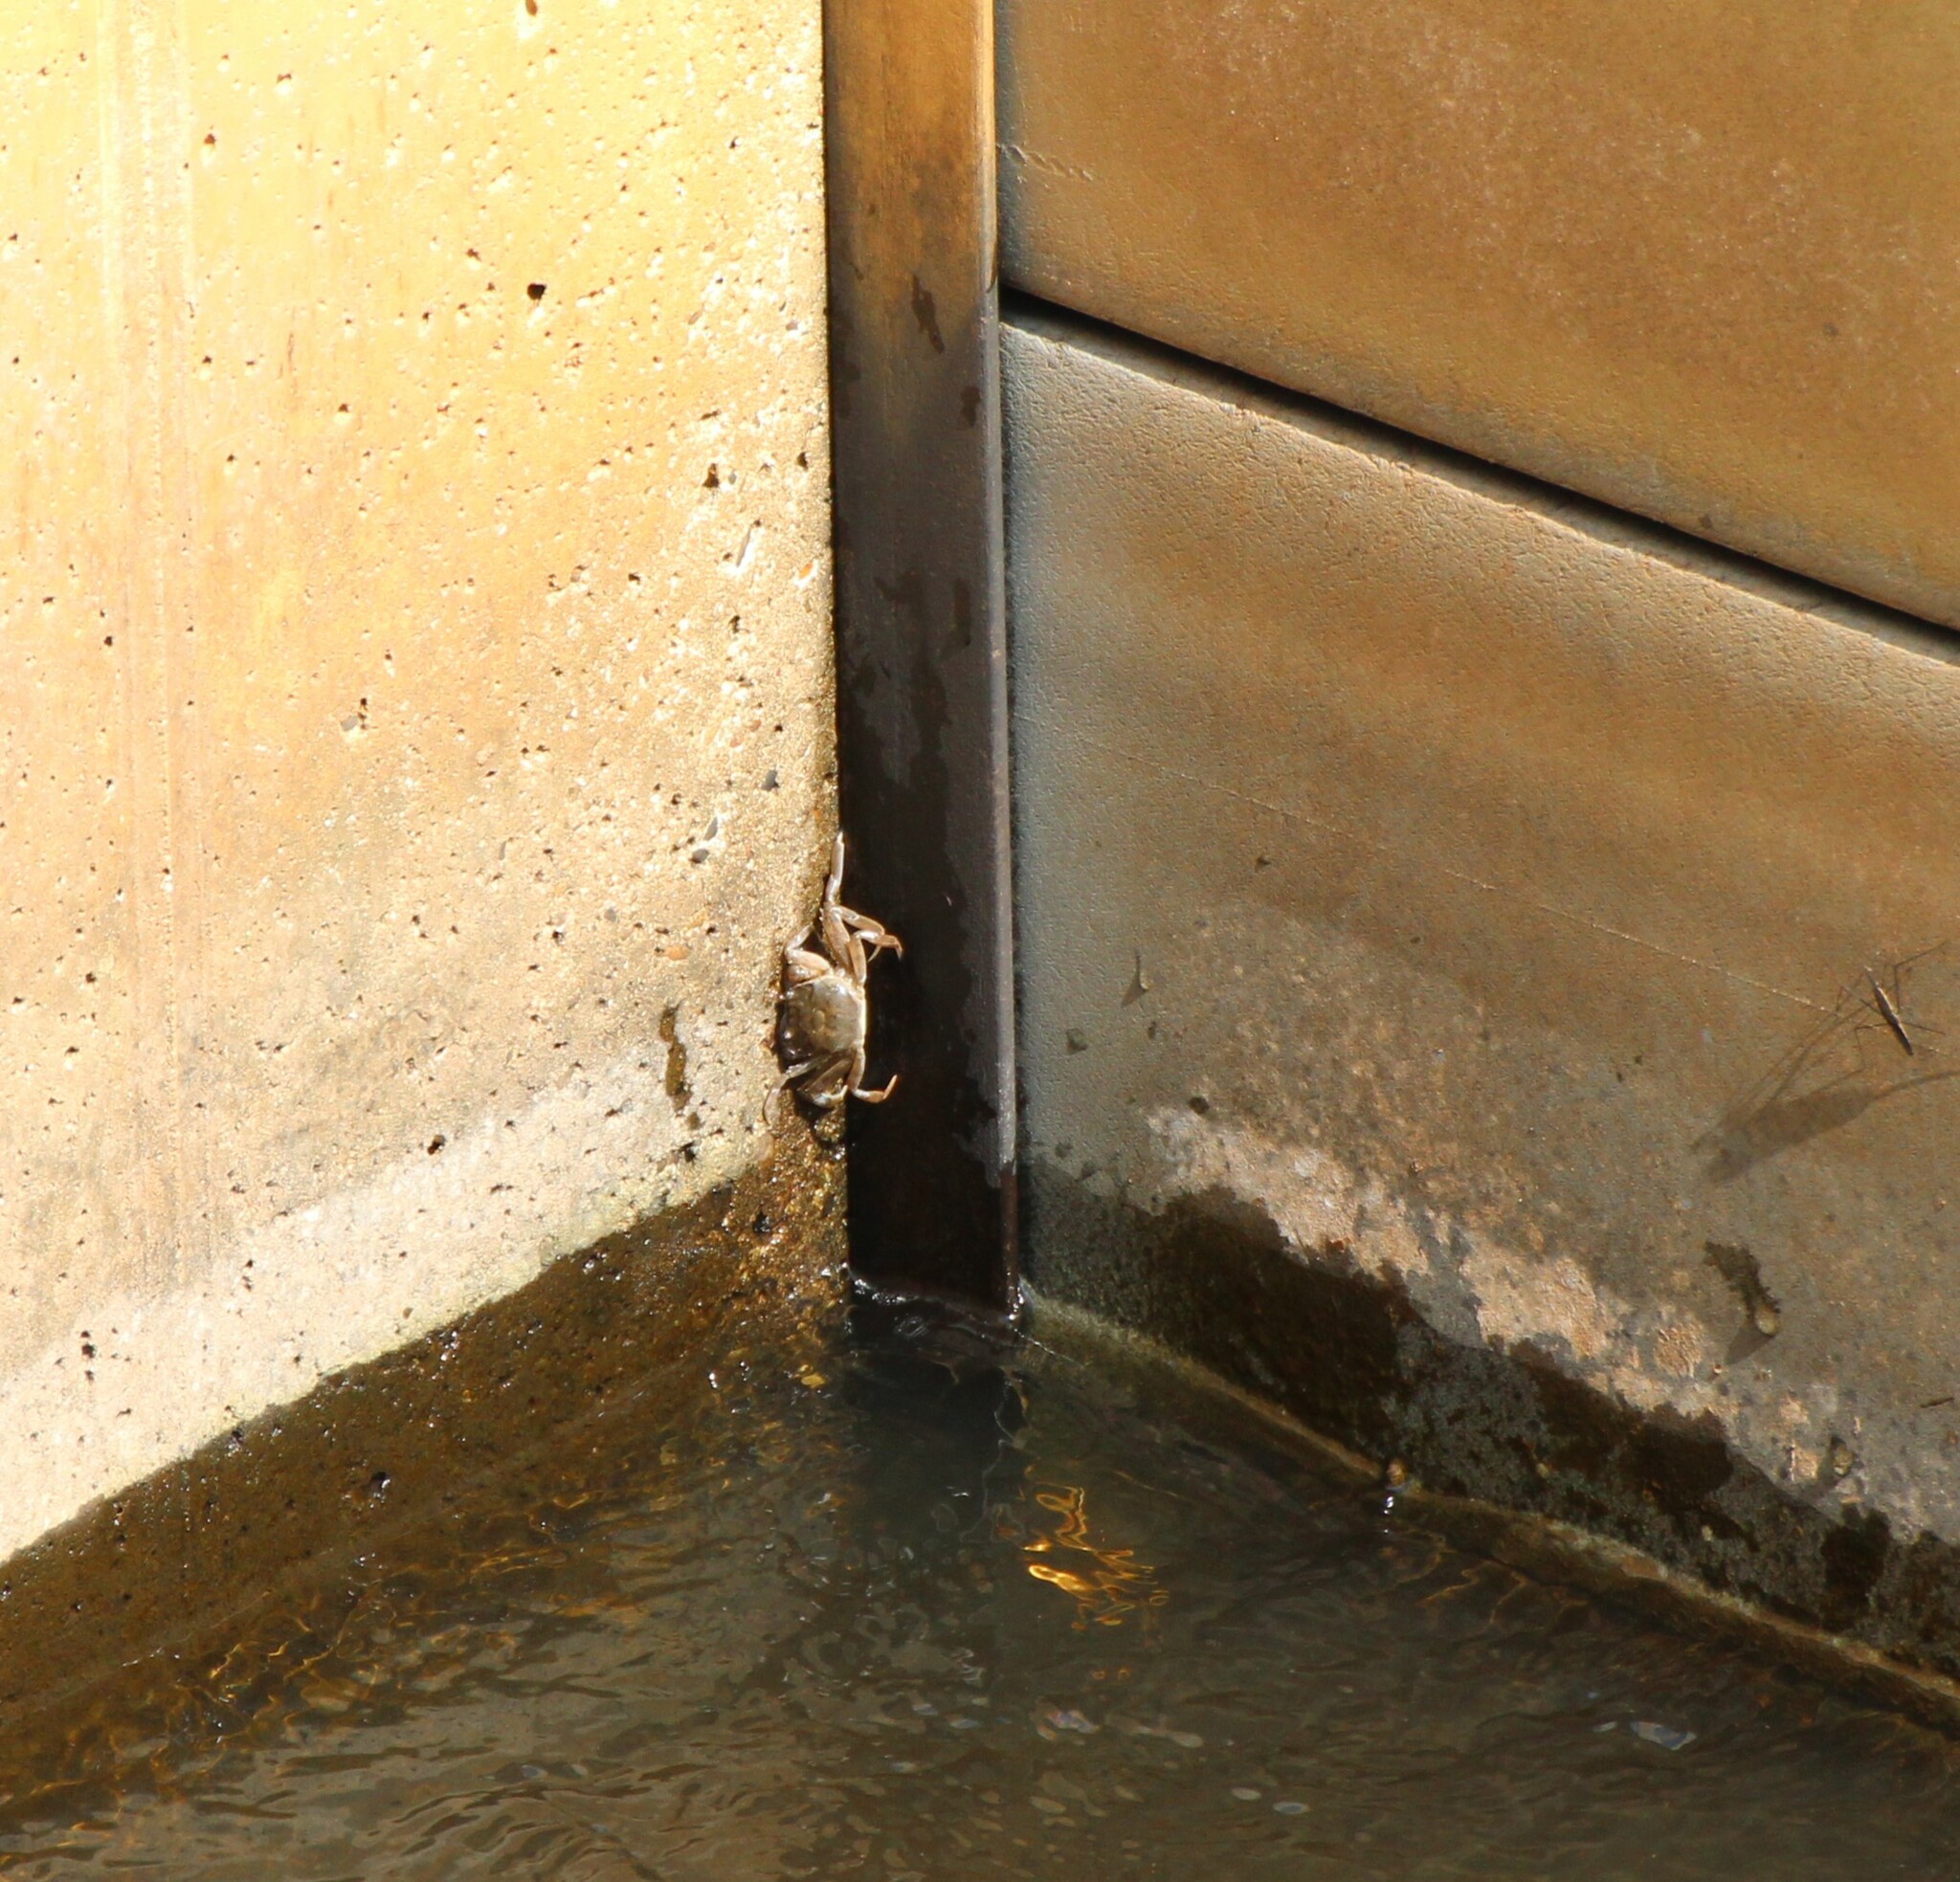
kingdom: Animalia
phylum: Arthropoda
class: Malacostraca
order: Decapoda
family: Varunidae
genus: Eriocheir
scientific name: Eriocheir sinensis
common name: Chinese mitten crab
